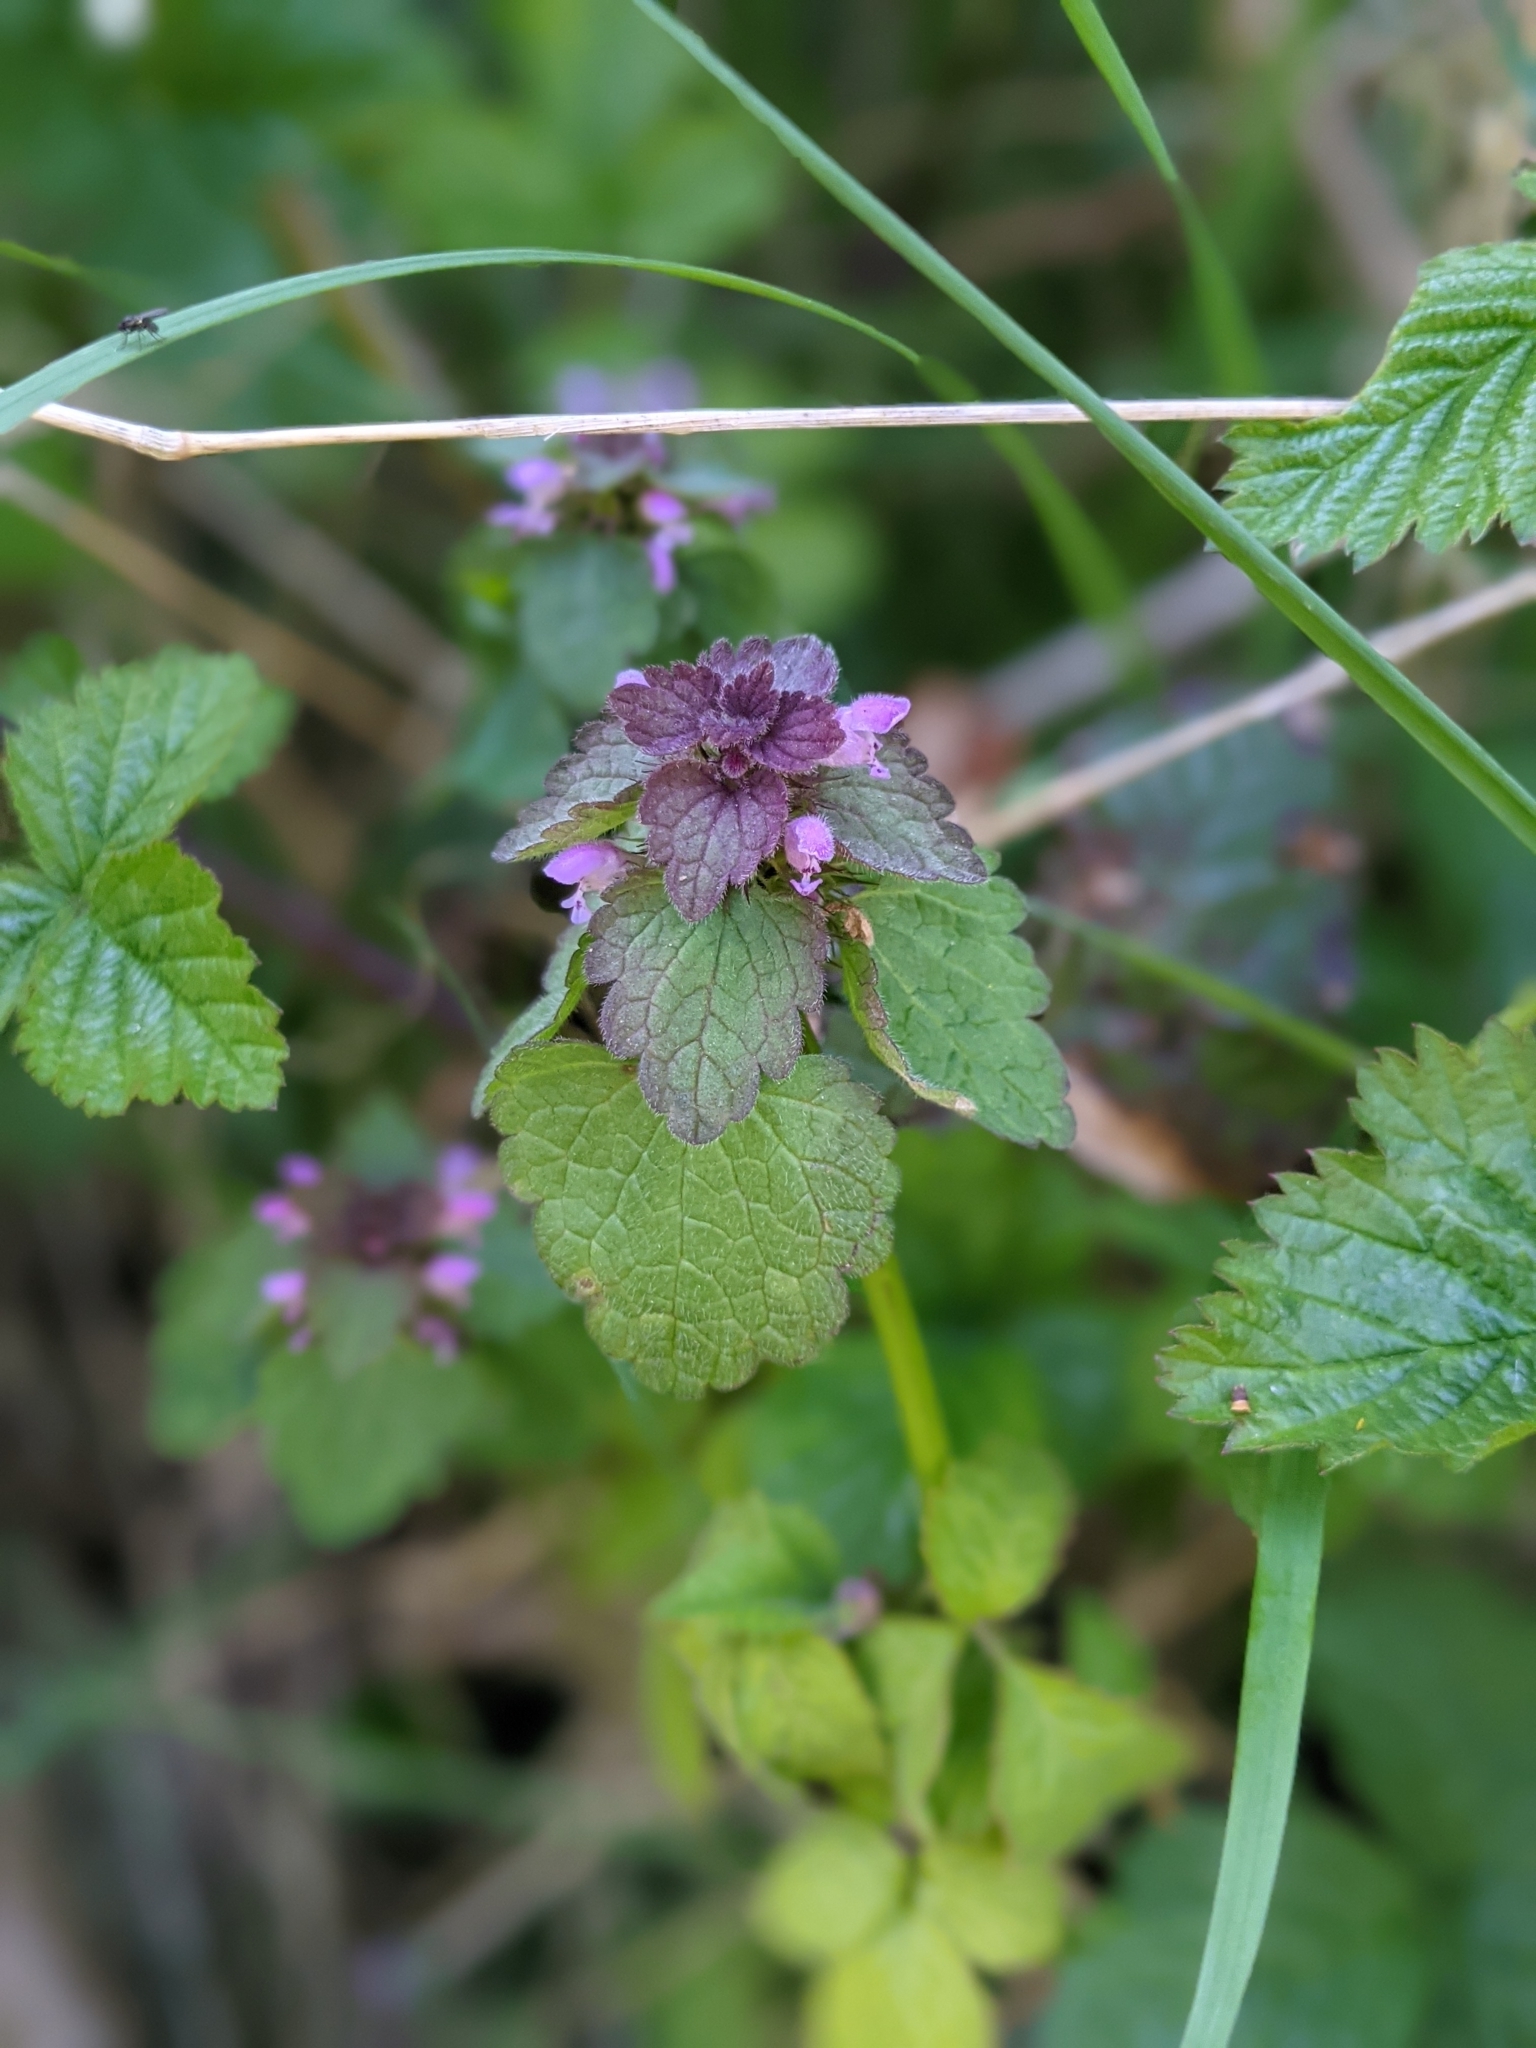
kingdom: Plantae
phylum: Tracheophyta
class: Magnoliopsida
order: Lamiales
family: Lamiaceae
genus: Lamium
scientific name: Lamium purpureum
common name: Red dead-nettle
